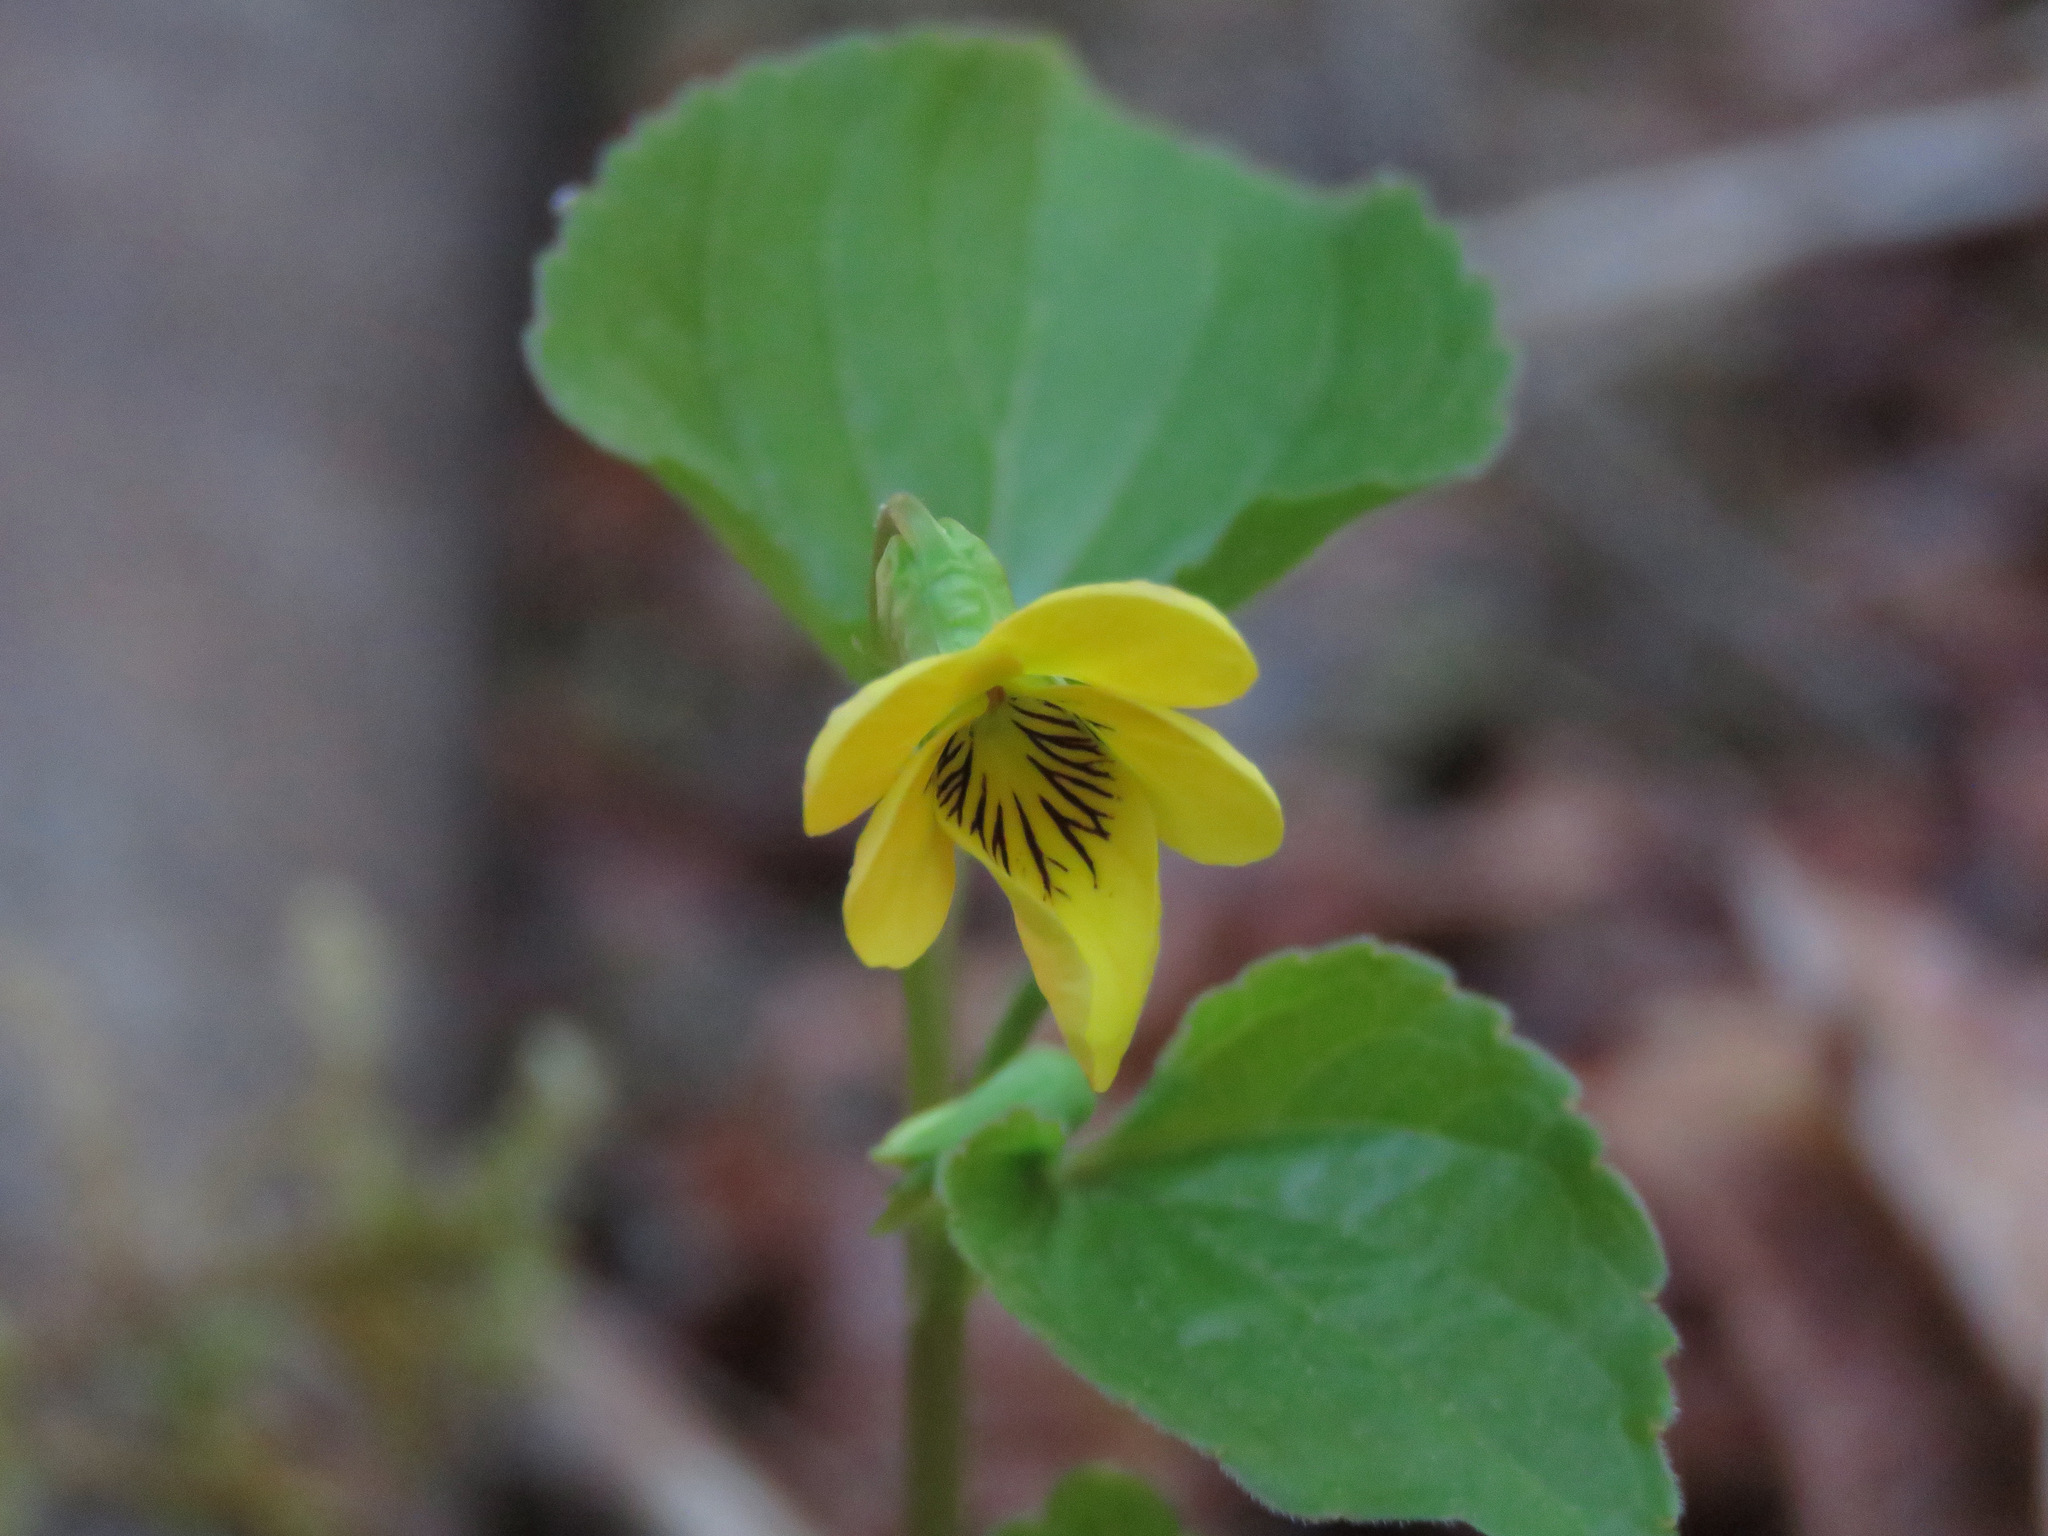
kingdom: Plantae
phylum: Tracheophyta
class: Magnoliopsida
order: Malpighiales
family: Violaceae
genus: Viola
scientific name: Viola glabella
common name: Stream violet
